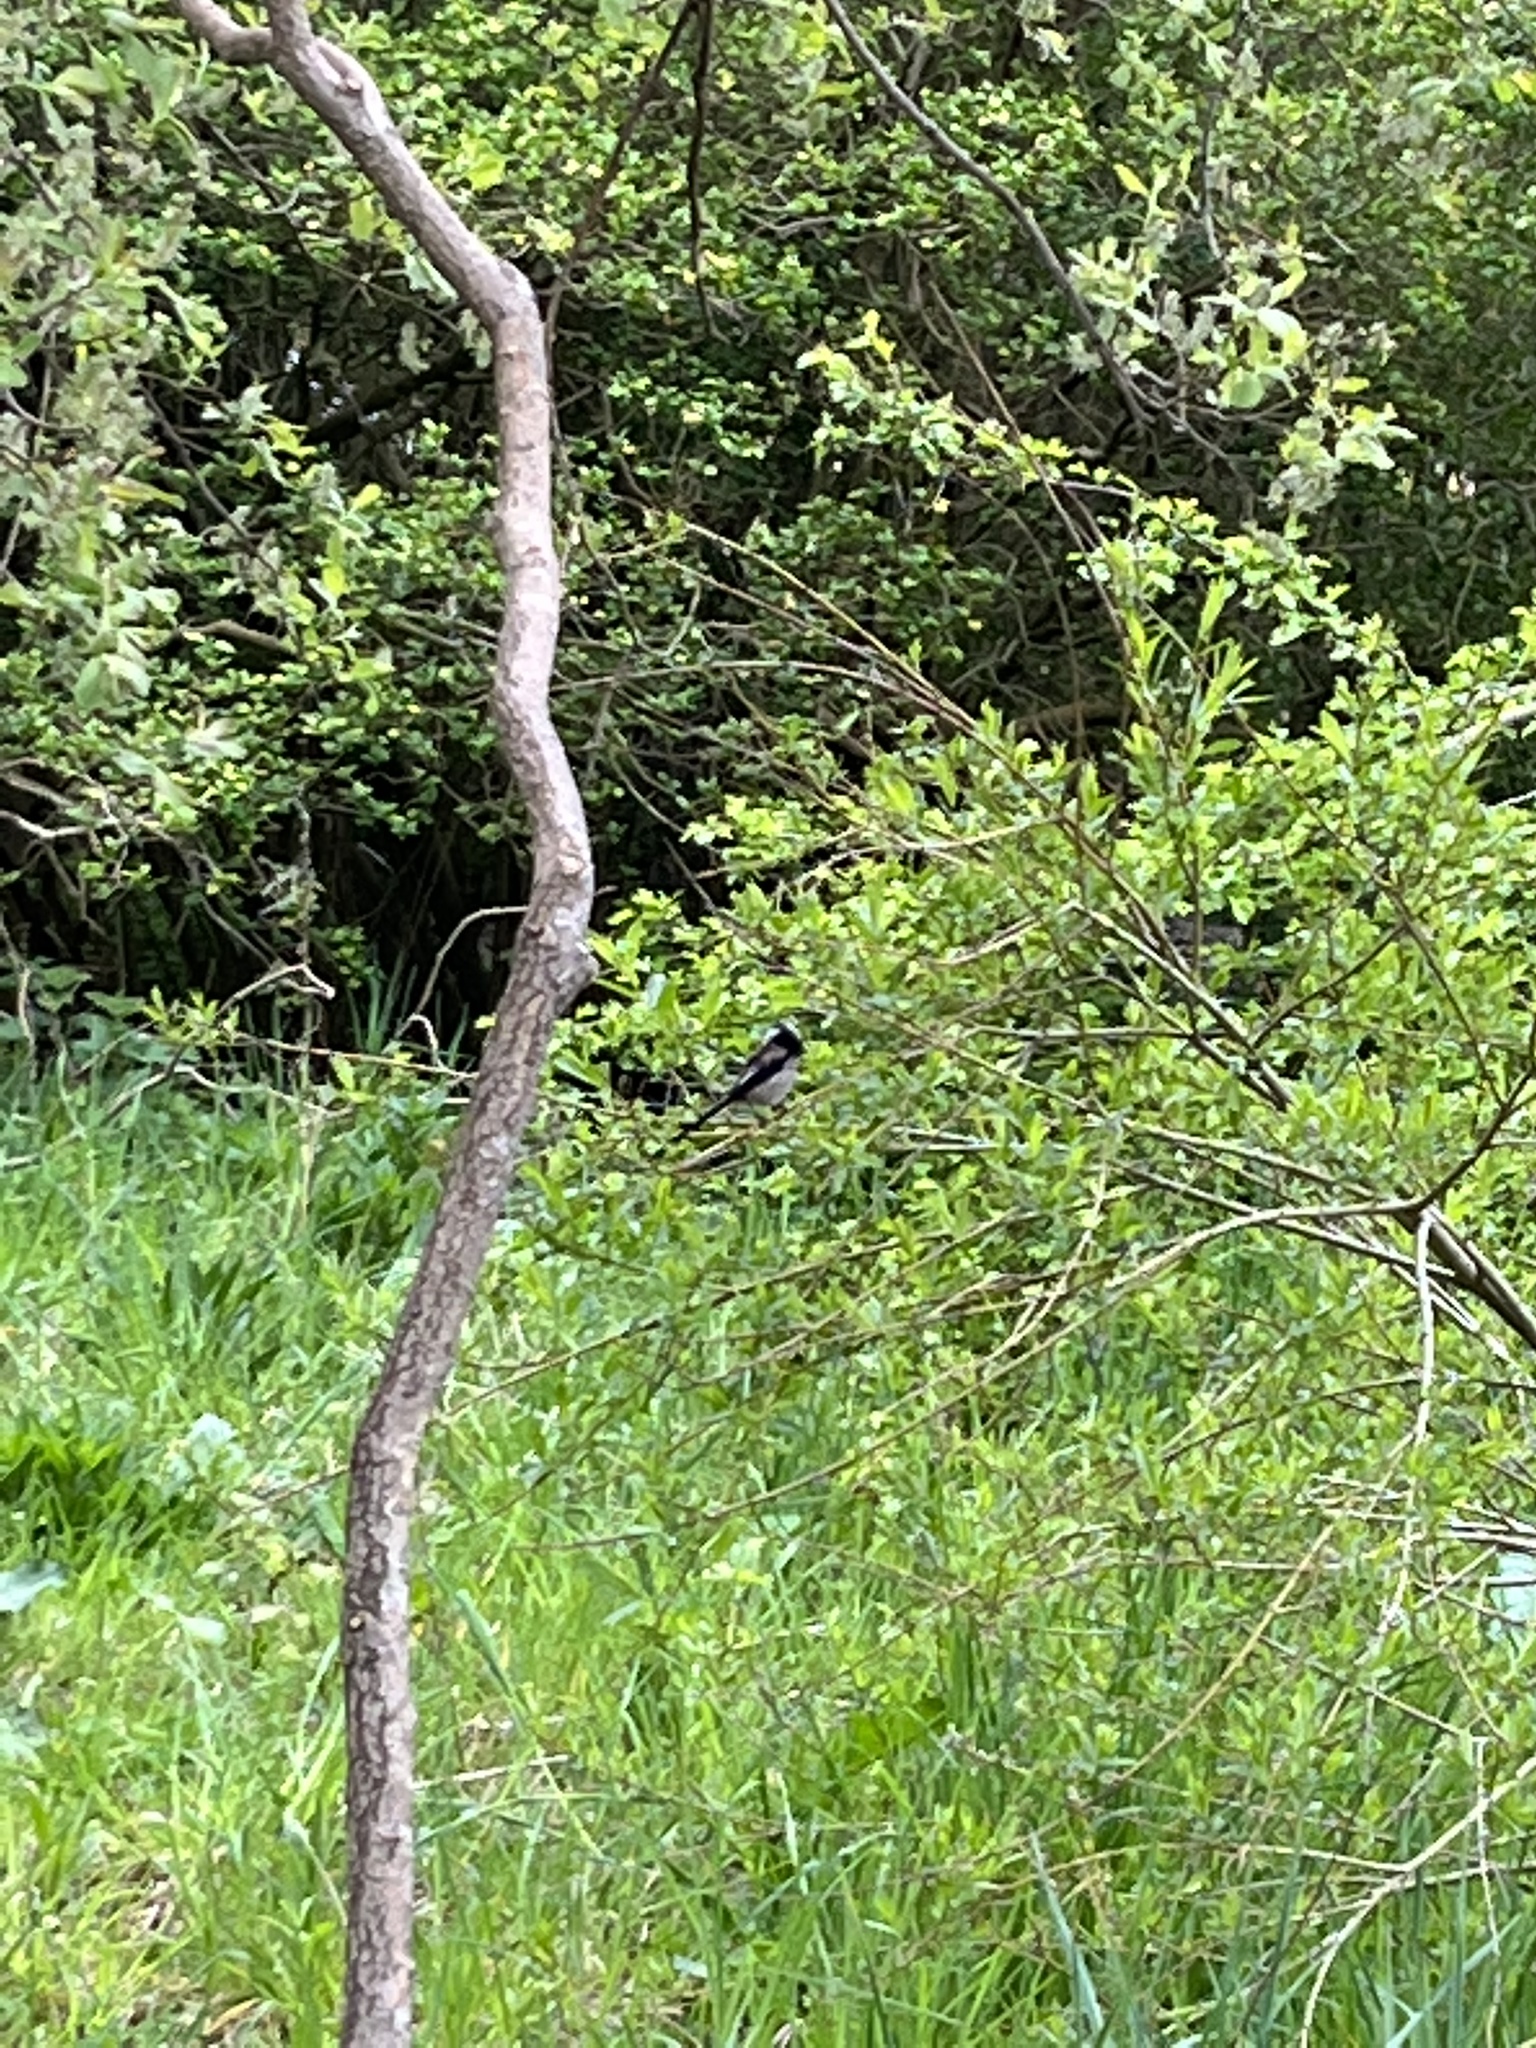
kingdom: Animalia
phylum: Chordata
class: Aves
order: Passeriformes
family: Aegithalidae
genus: Aegithalos
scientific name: Aegithalos caudatus
